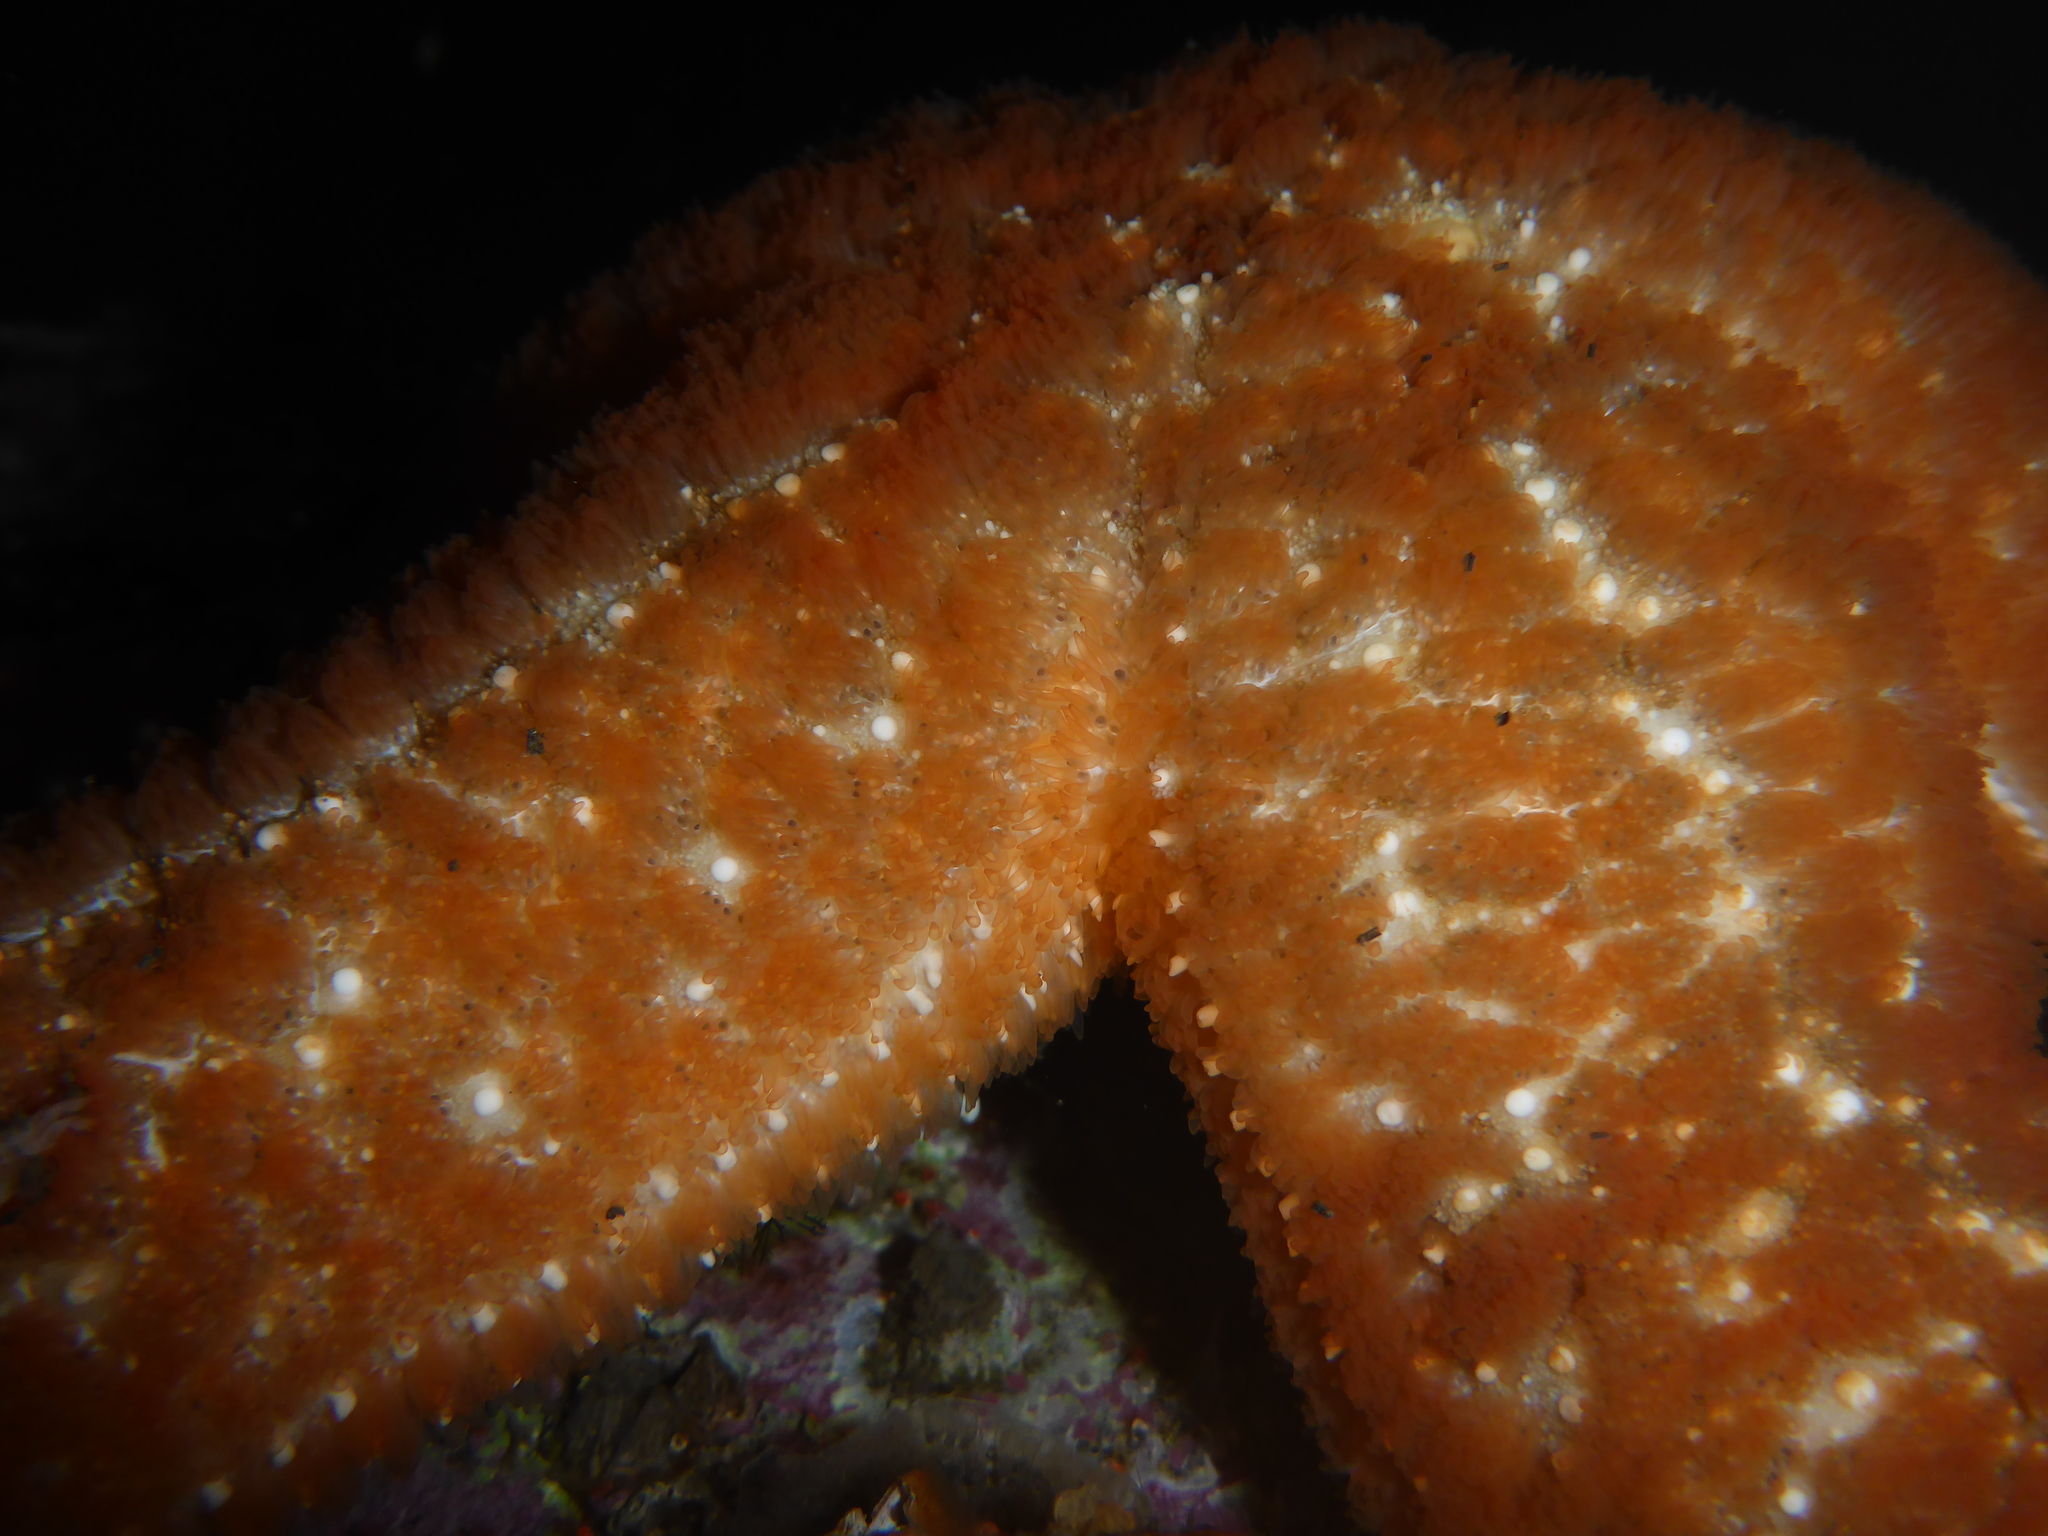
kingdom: Animalia
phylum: Echinodermata
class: Asteroidea
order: Forcipulatida
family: Asteriidae
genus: Evasterias
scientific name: Evasterias troschelii
